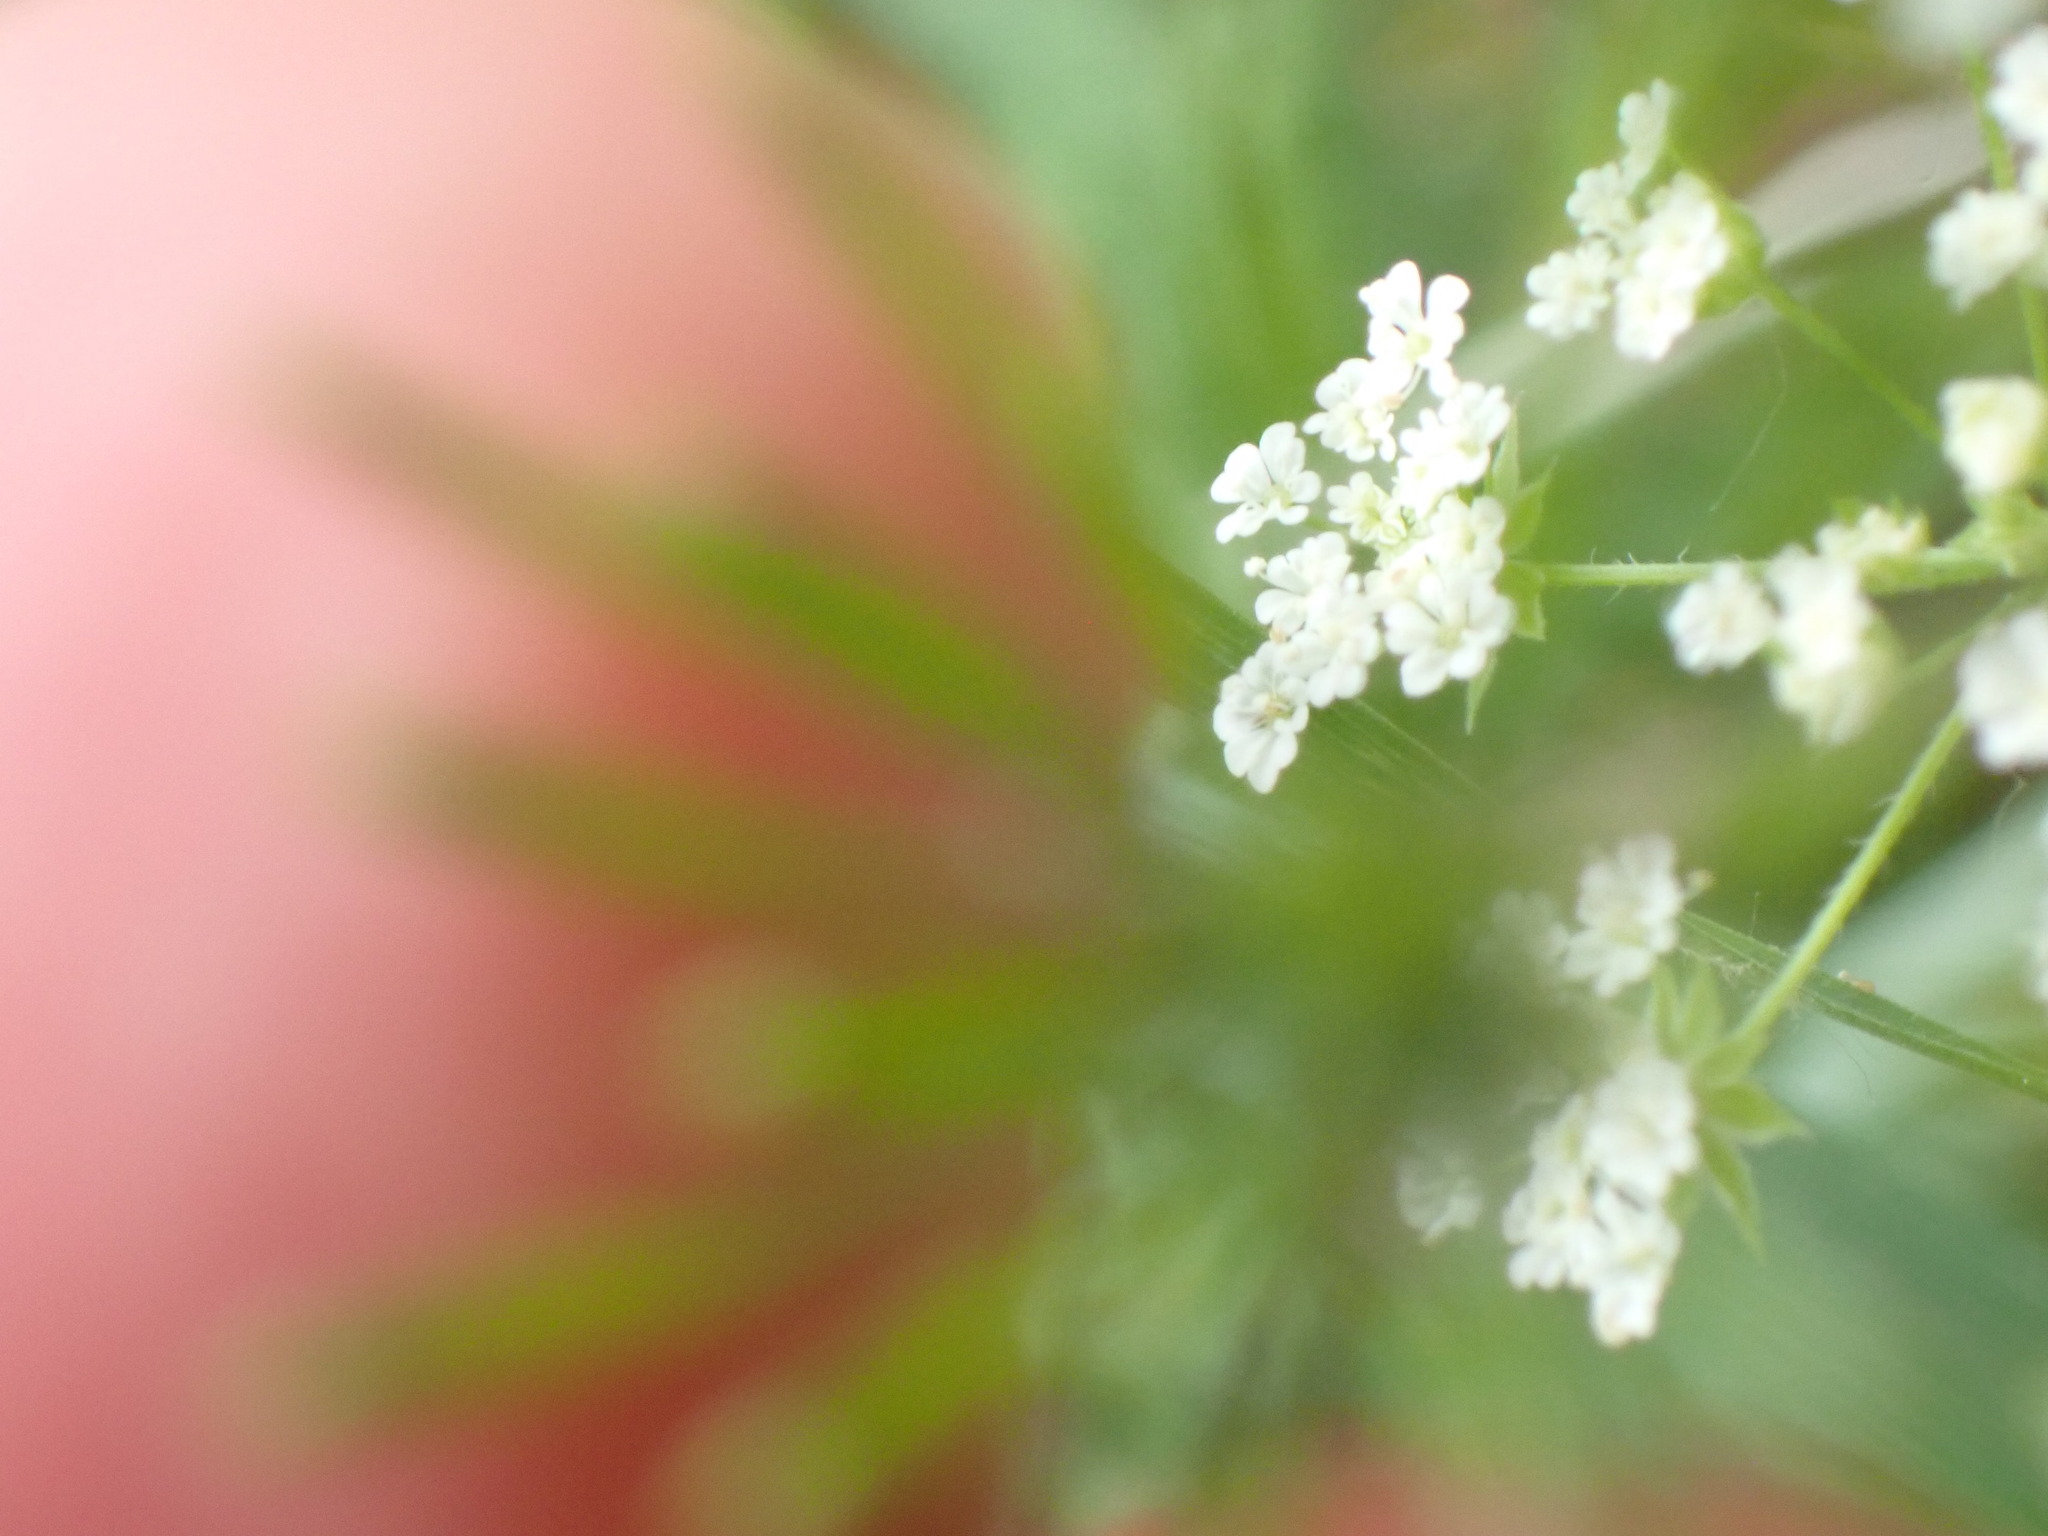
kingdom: Plantae
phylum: Tracheophyta
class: Magnoliopsida
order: Apiales
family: Apiaceae
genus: Chaerophyllum
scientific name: Chaerophyllum temulum
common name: Rough chervil
